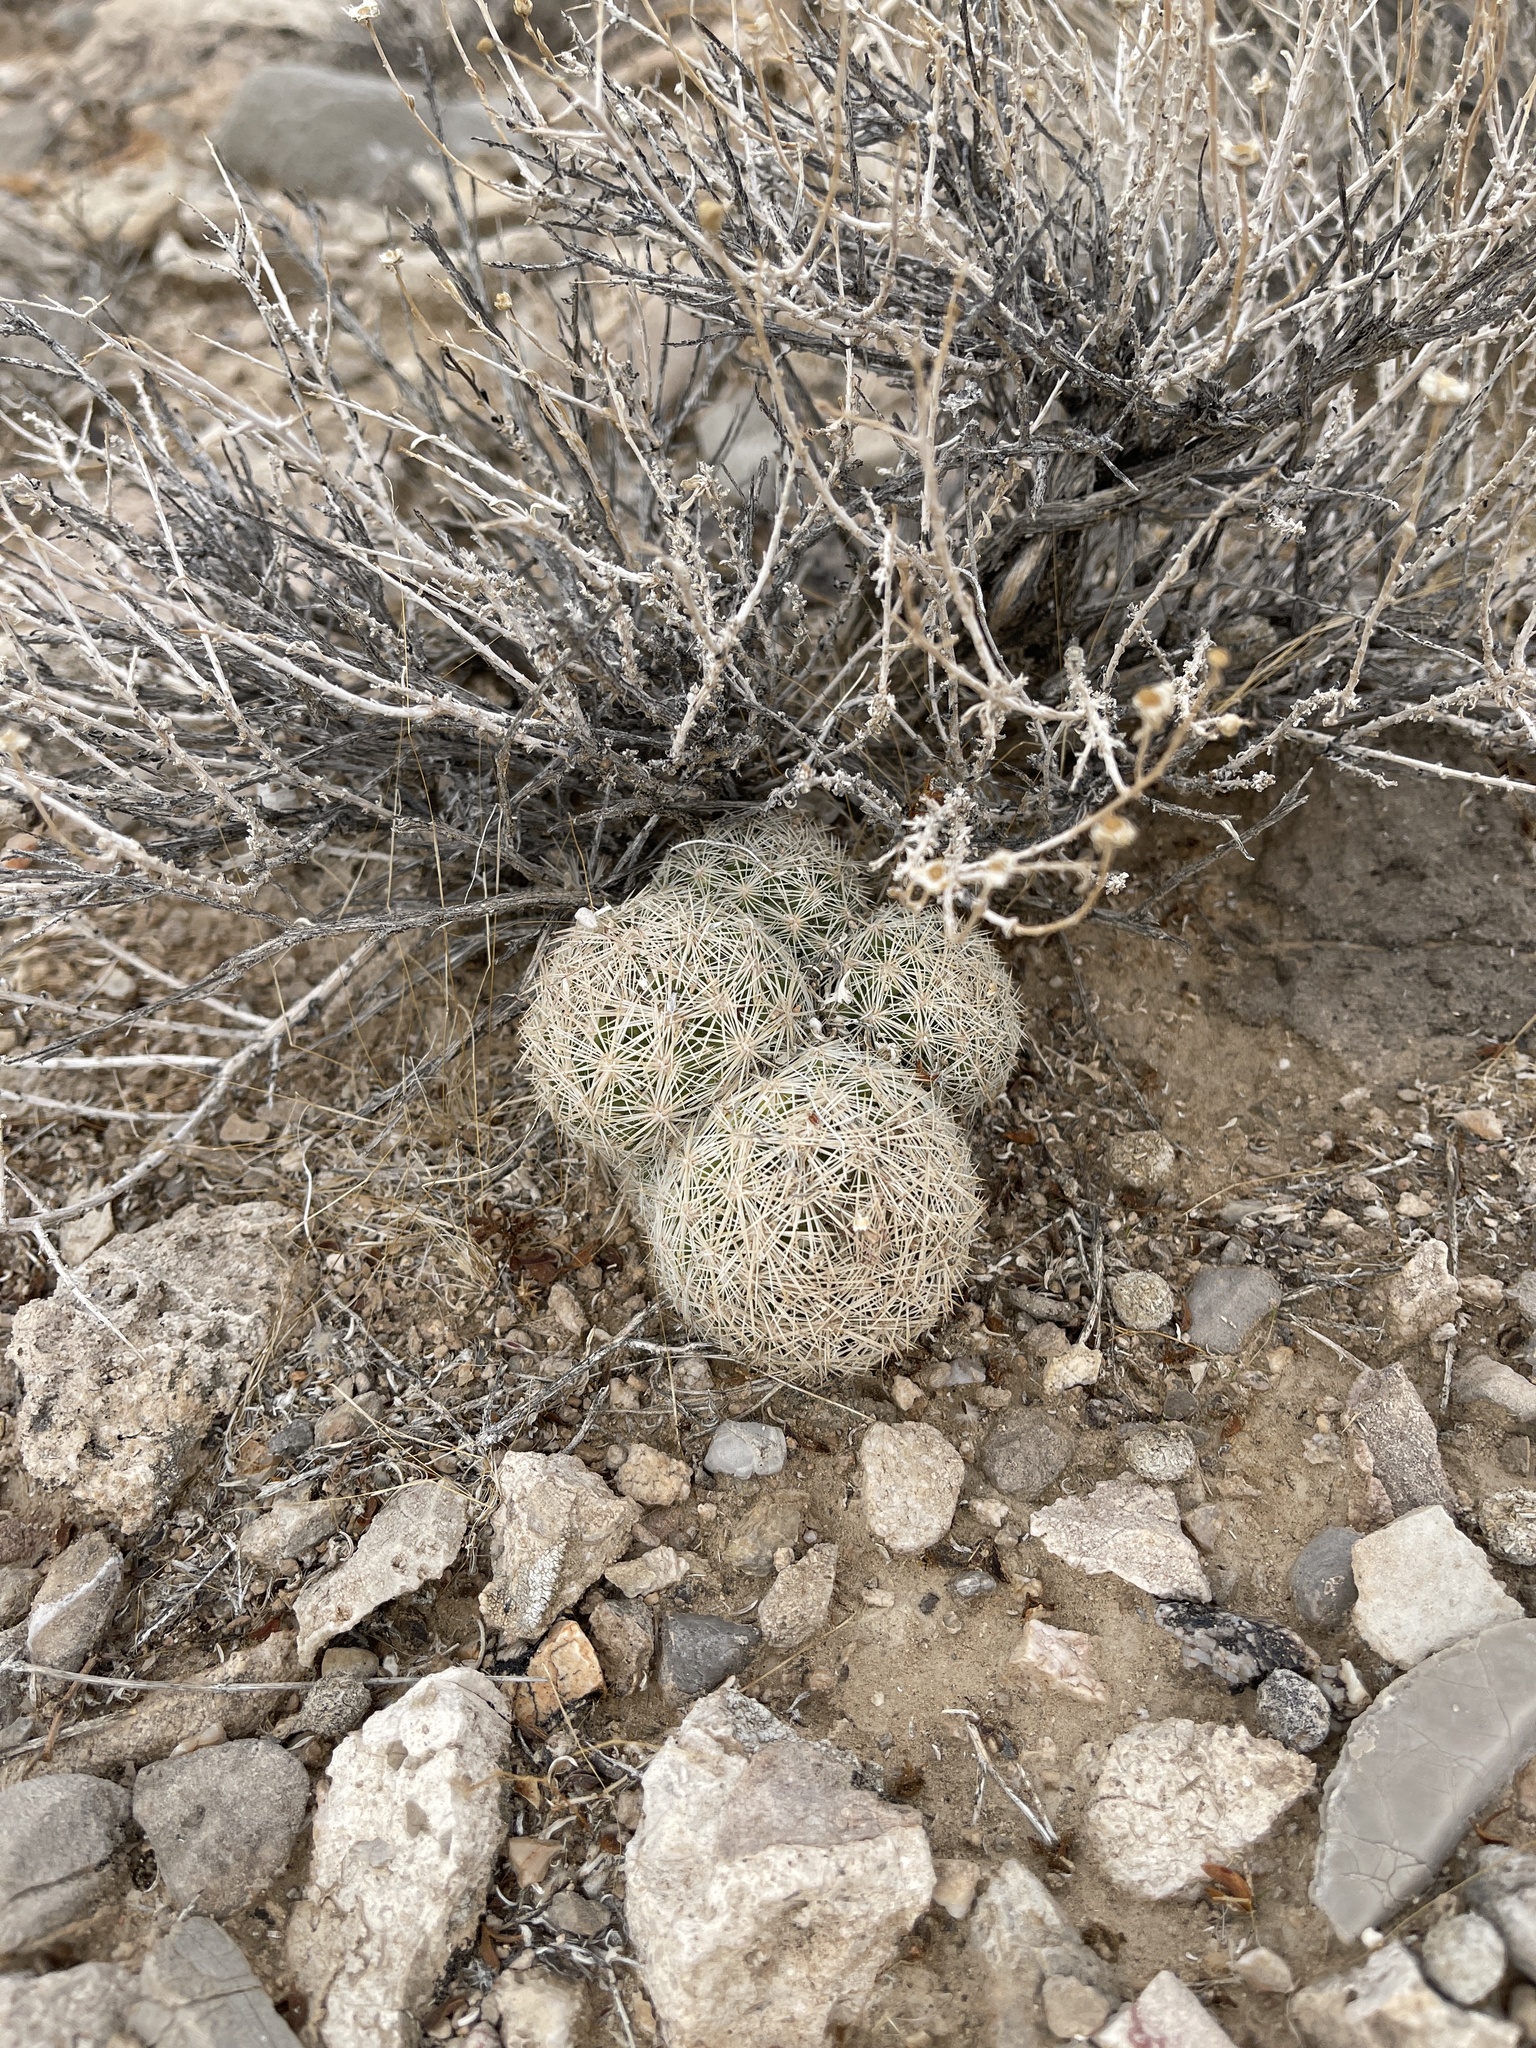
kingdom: Plantae
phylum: Tracheophyta
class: Magnoliopsida
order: Caryophyllales
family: Cactaceae
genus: Pelecyphora
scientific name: Pelecyphora dasyacantha
